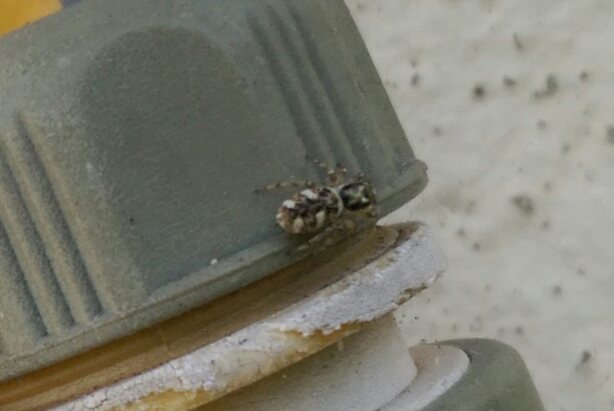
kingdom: Animalia
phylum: Arthropoda
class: Arachnida
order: Araneae
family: Salticidae
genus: Salticus
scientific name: Salticus scenicus
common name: Zebra jumper
